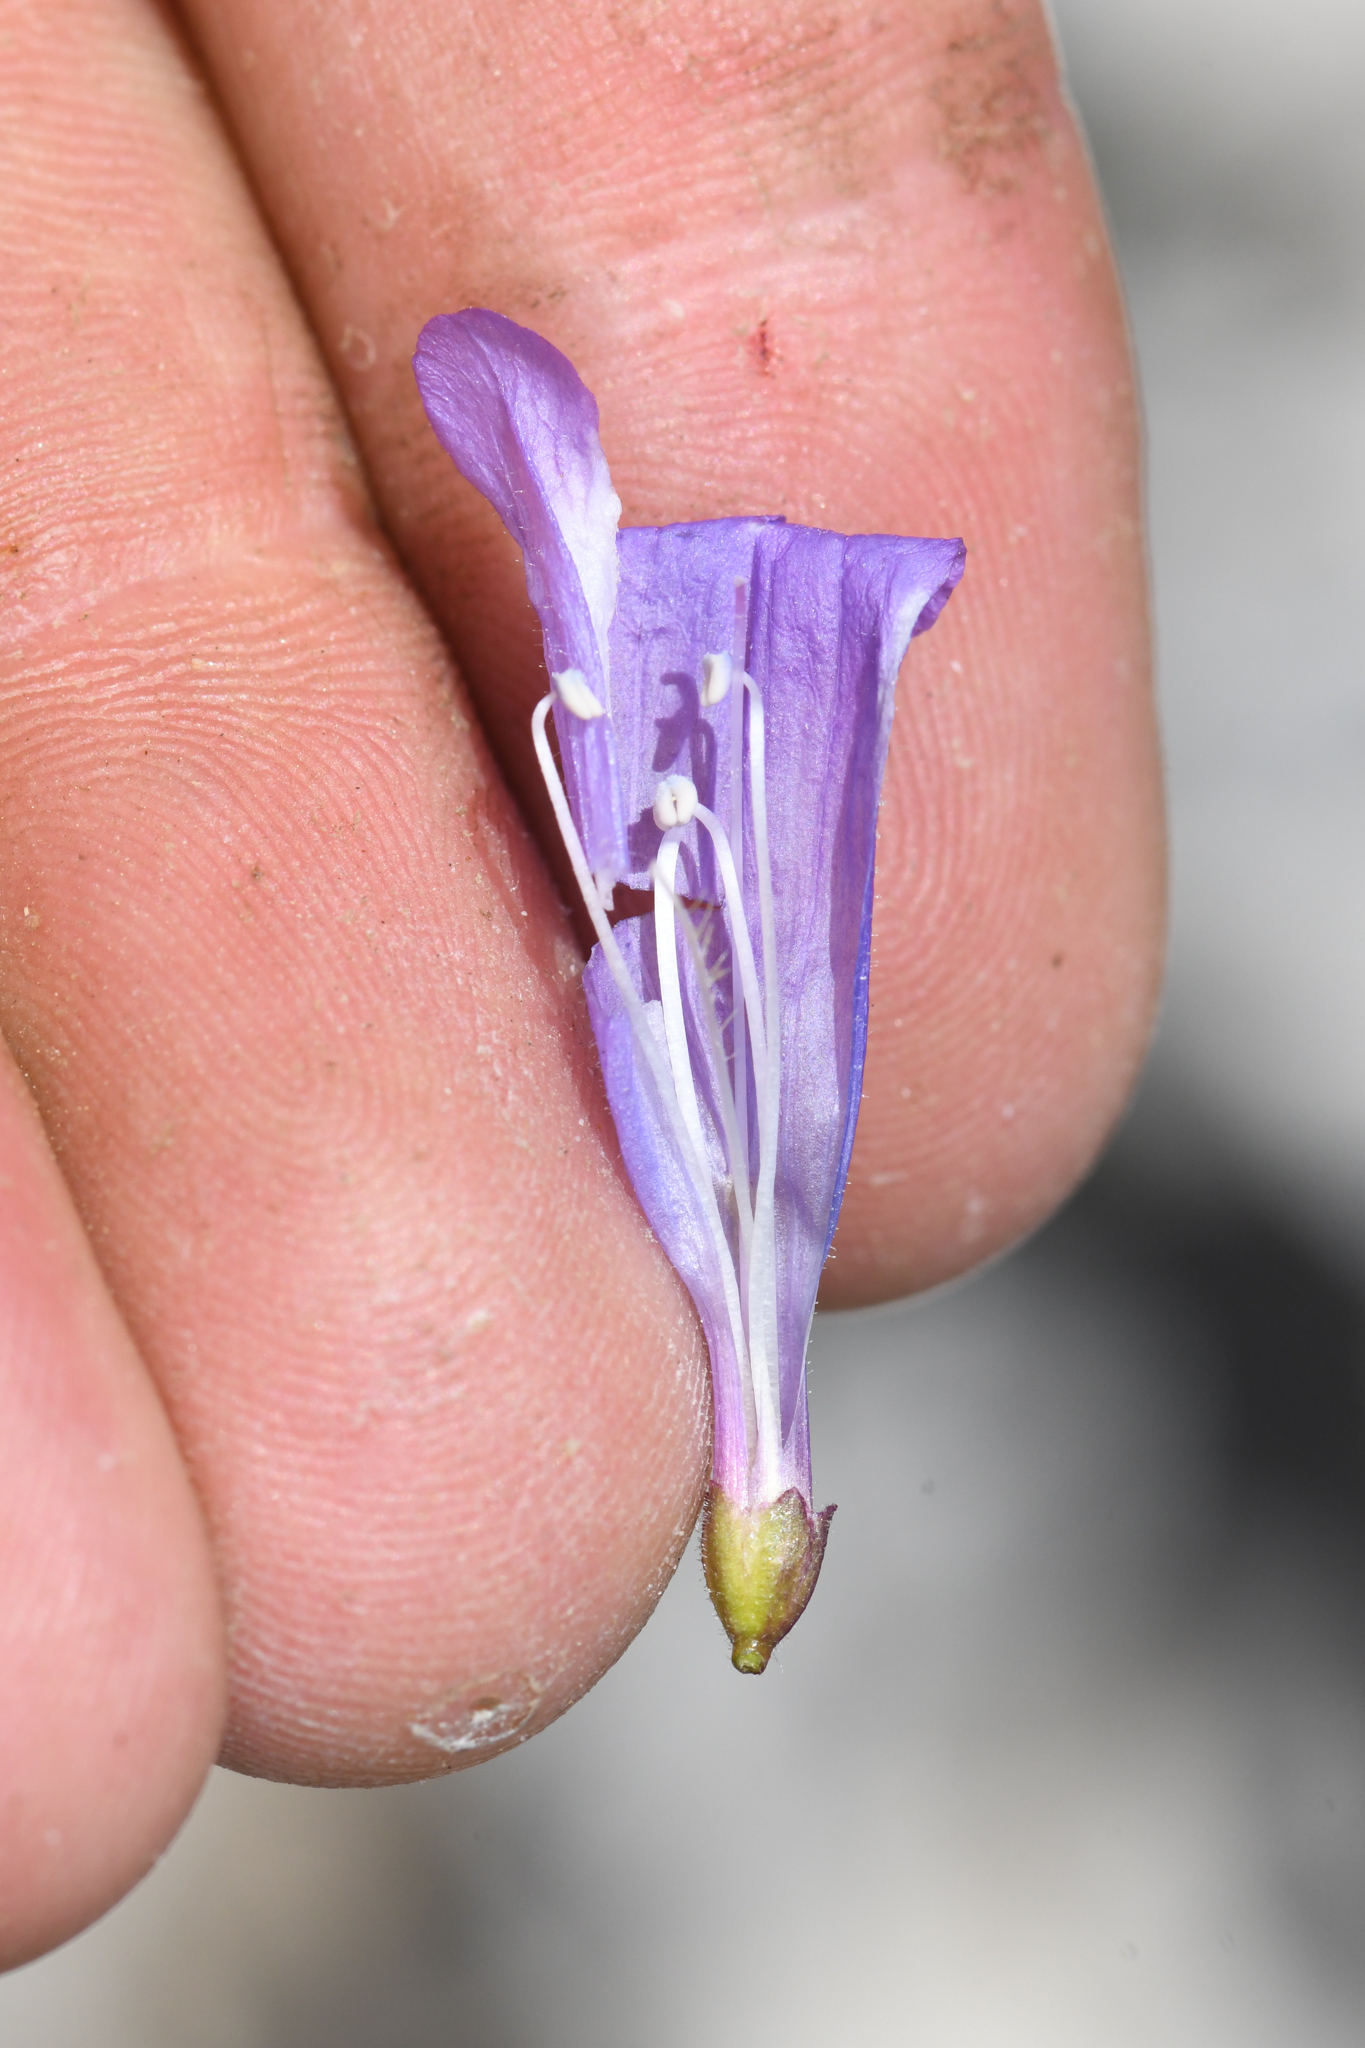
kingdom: Plantae
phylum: Tracheophyta
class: Magnoliopsida
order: Lamiales
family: Plantaginaceae
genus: Penstemon
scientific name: Penstemon scapoides
